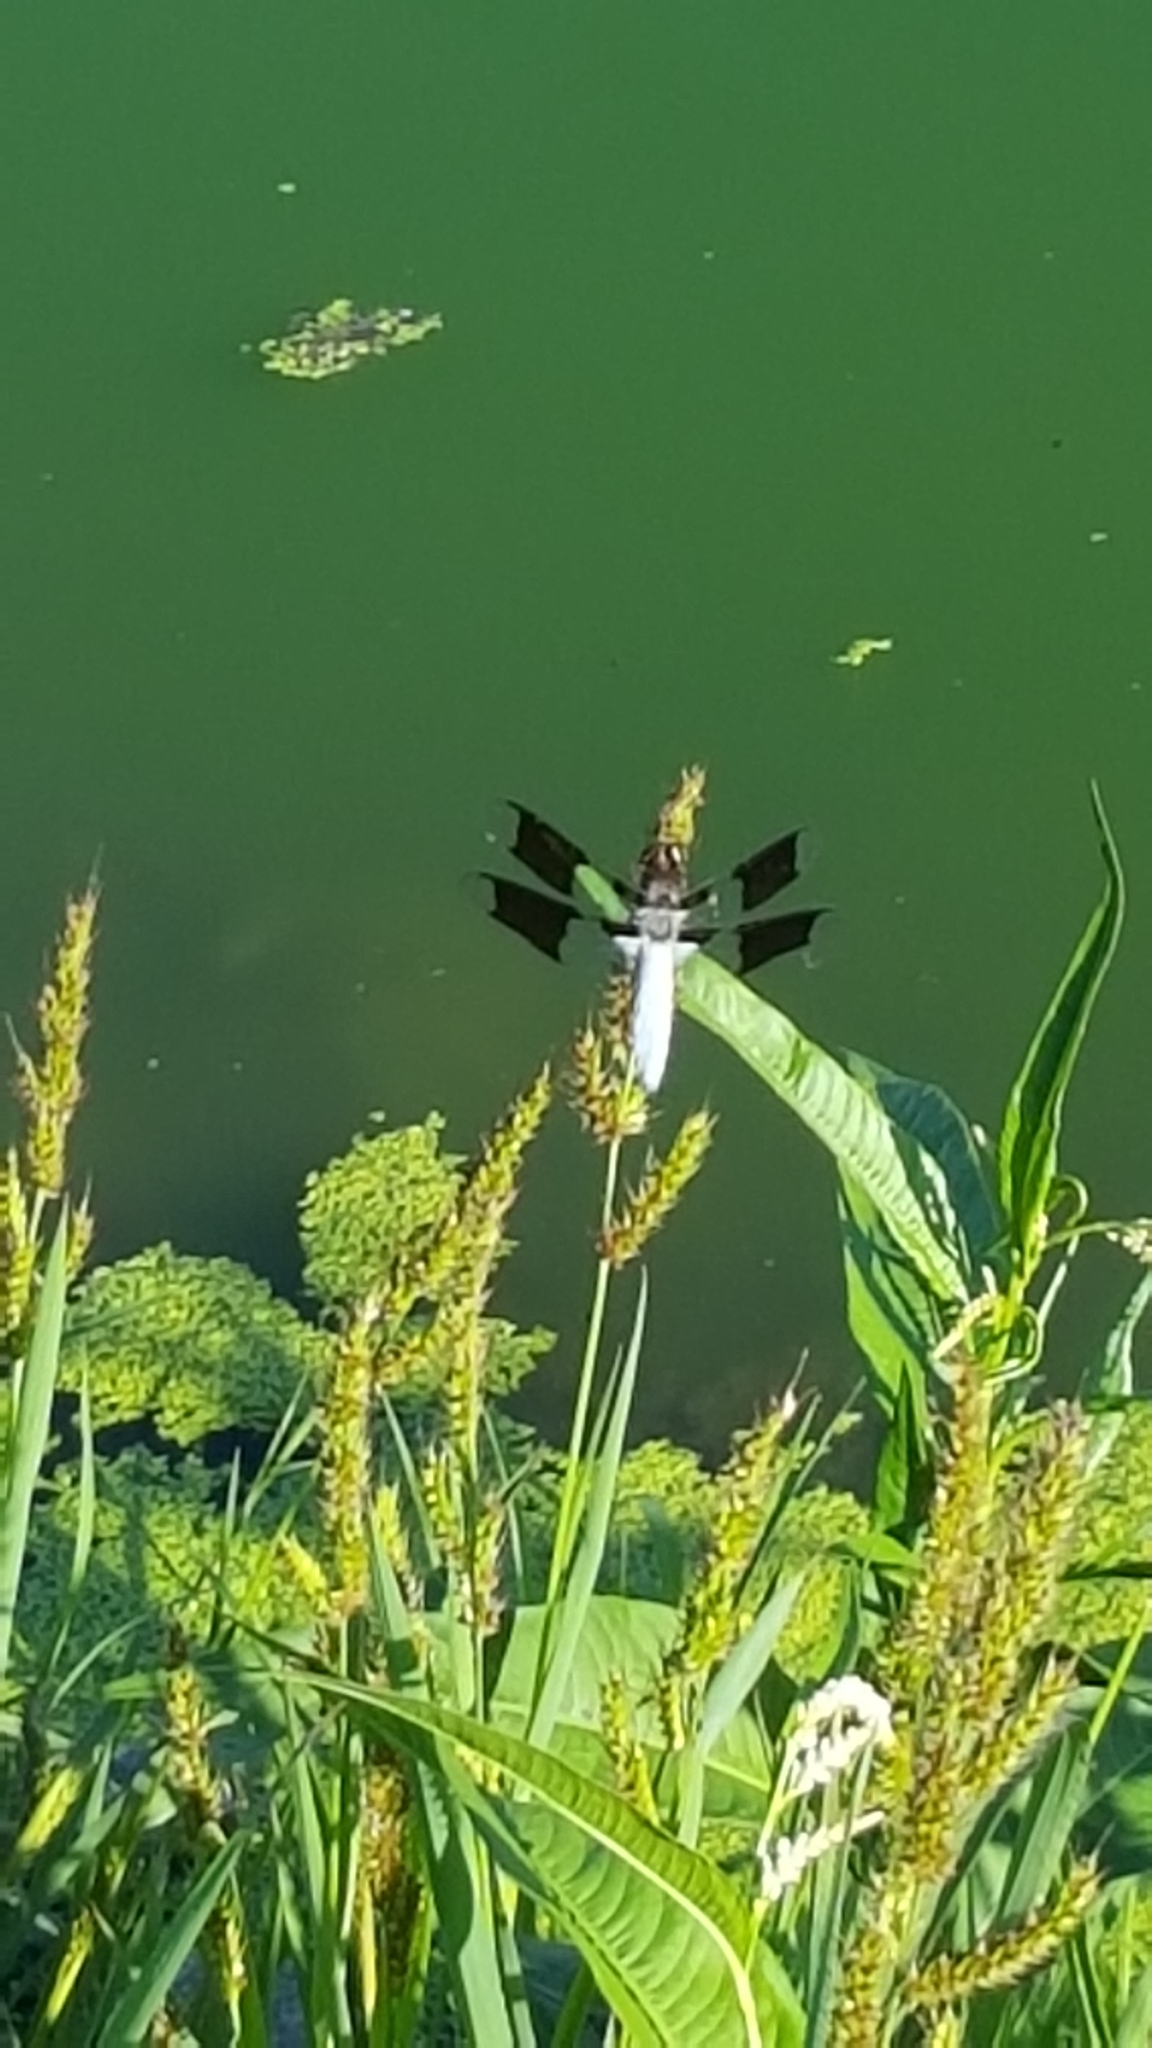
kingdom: Animalia
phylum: Arthropoda
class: Insecta
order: Odonata
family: Libellulidae
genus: Plathemis
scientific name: Plathemis lydia
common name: Common whitetail
